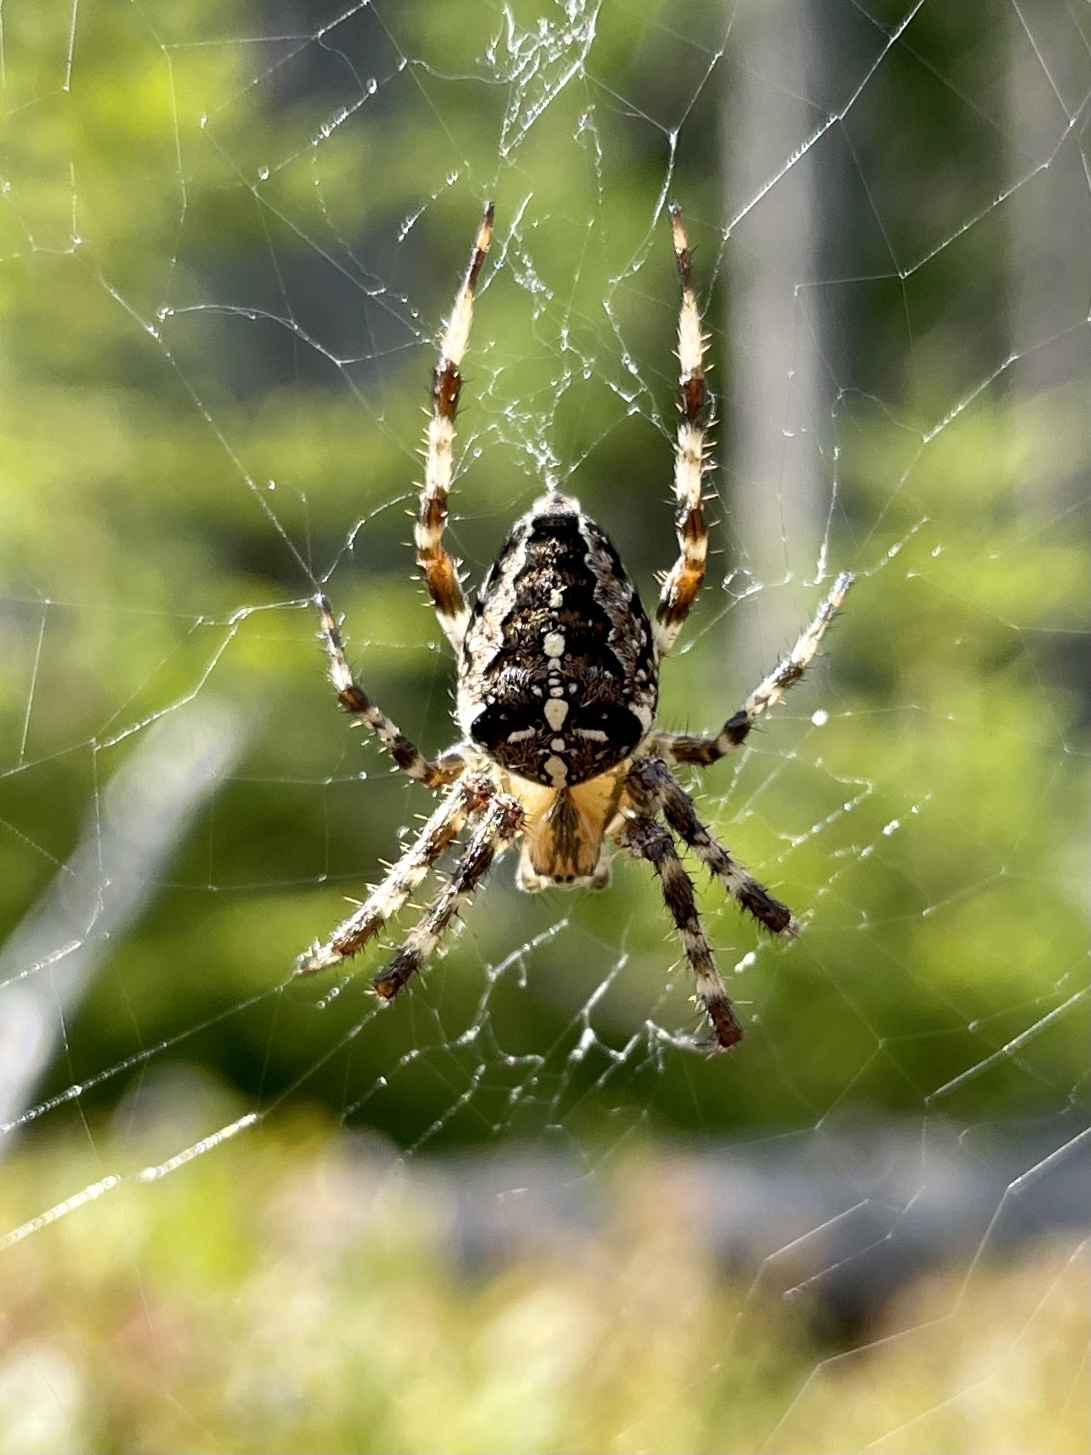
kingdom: Animalia
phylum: Arthropoda
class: Arachnida
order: Araneae
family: Araneidae
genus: Araneus
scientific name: Araneus diadematus
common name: Cross orbweaver
